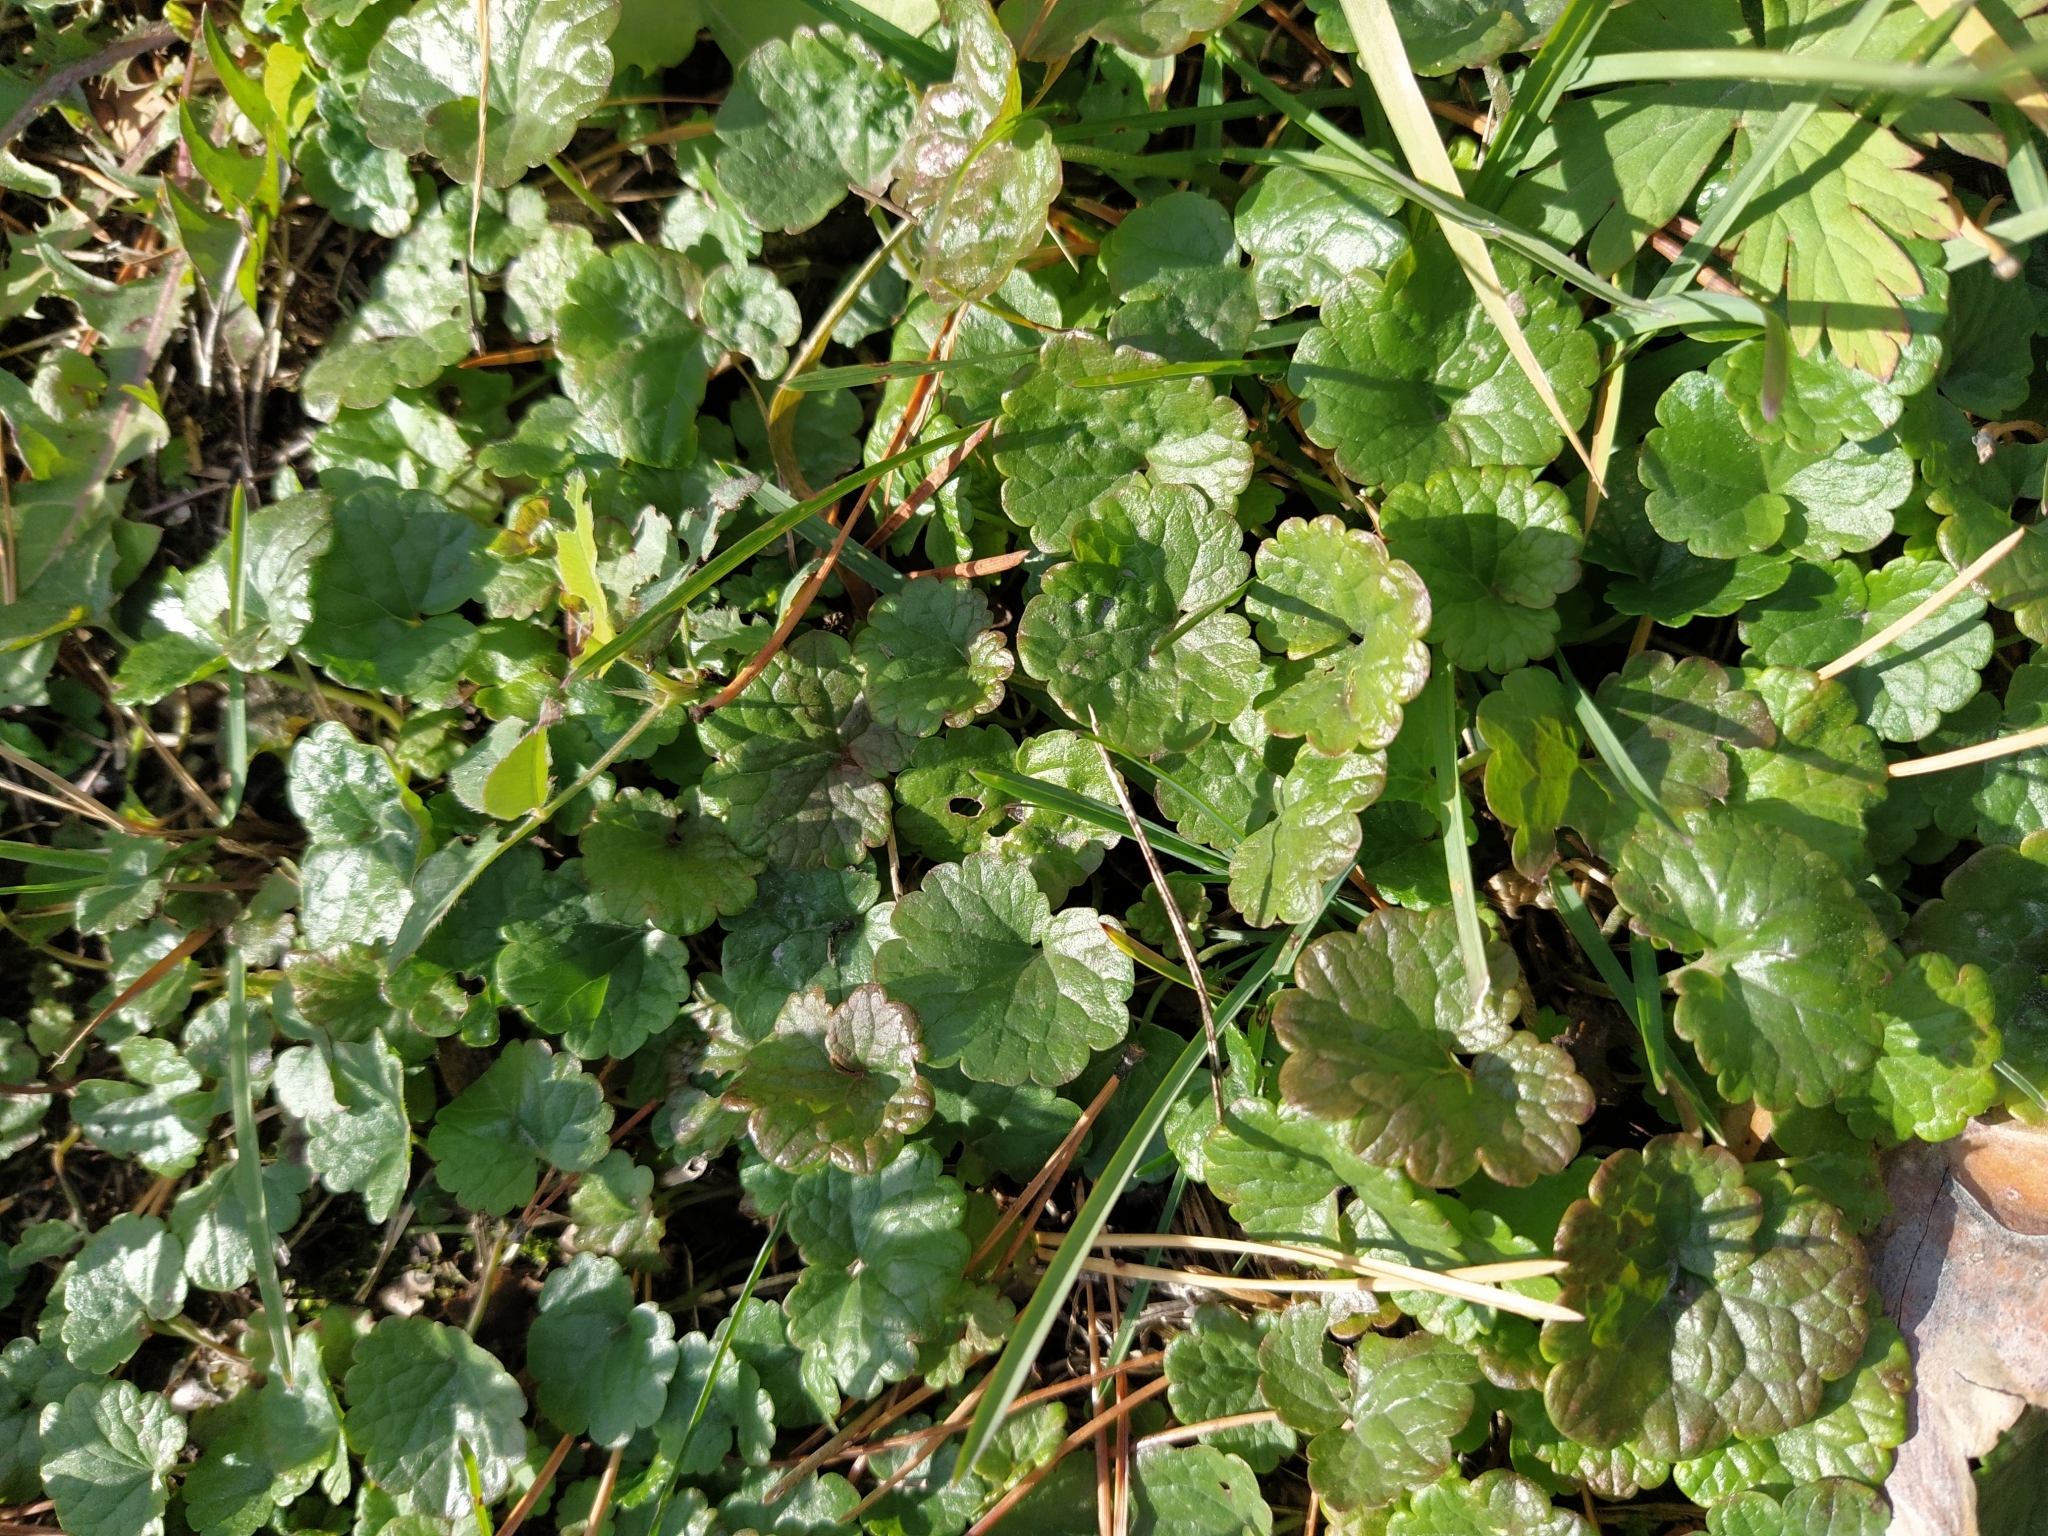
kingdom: Plantae
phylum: Tracheophyta
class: Magnoliopsida
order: Lamiales
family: Lamiaceae
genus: Glechoma
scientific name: Glechoma hederacea
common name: Ground ivy
